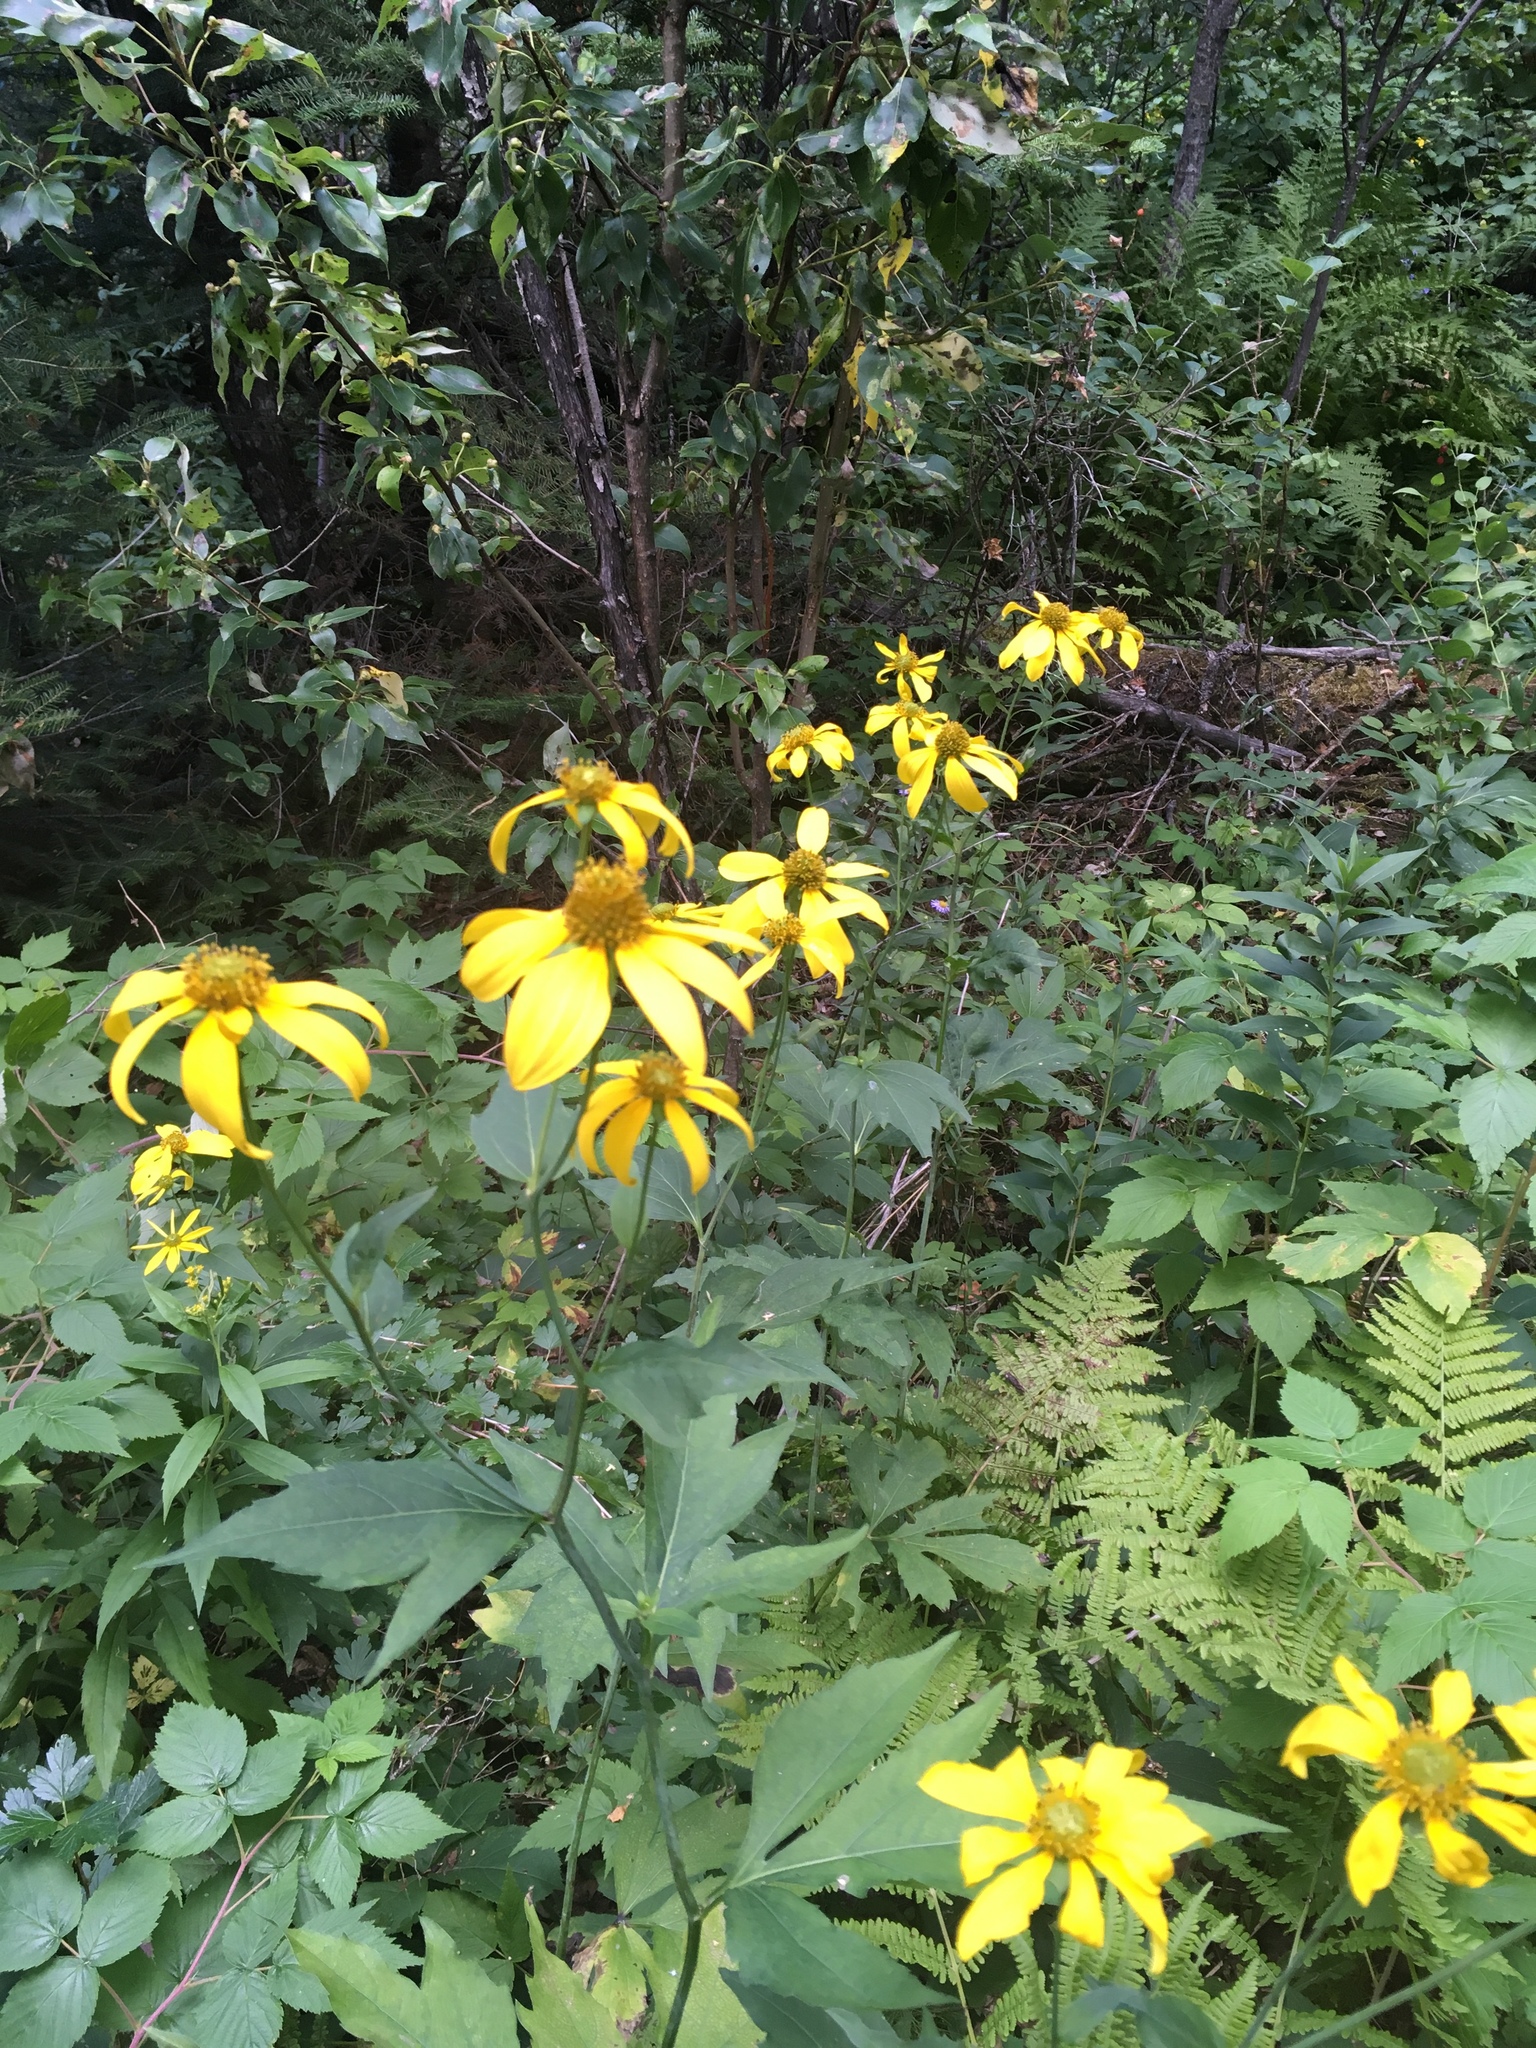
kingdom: Plantae
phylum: Tracheophyta
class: Magnoliopsida
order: Asterales
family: Asteraceae
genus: Rudbeckia
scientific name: Rudbeckia laciniata
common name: Coneflower
